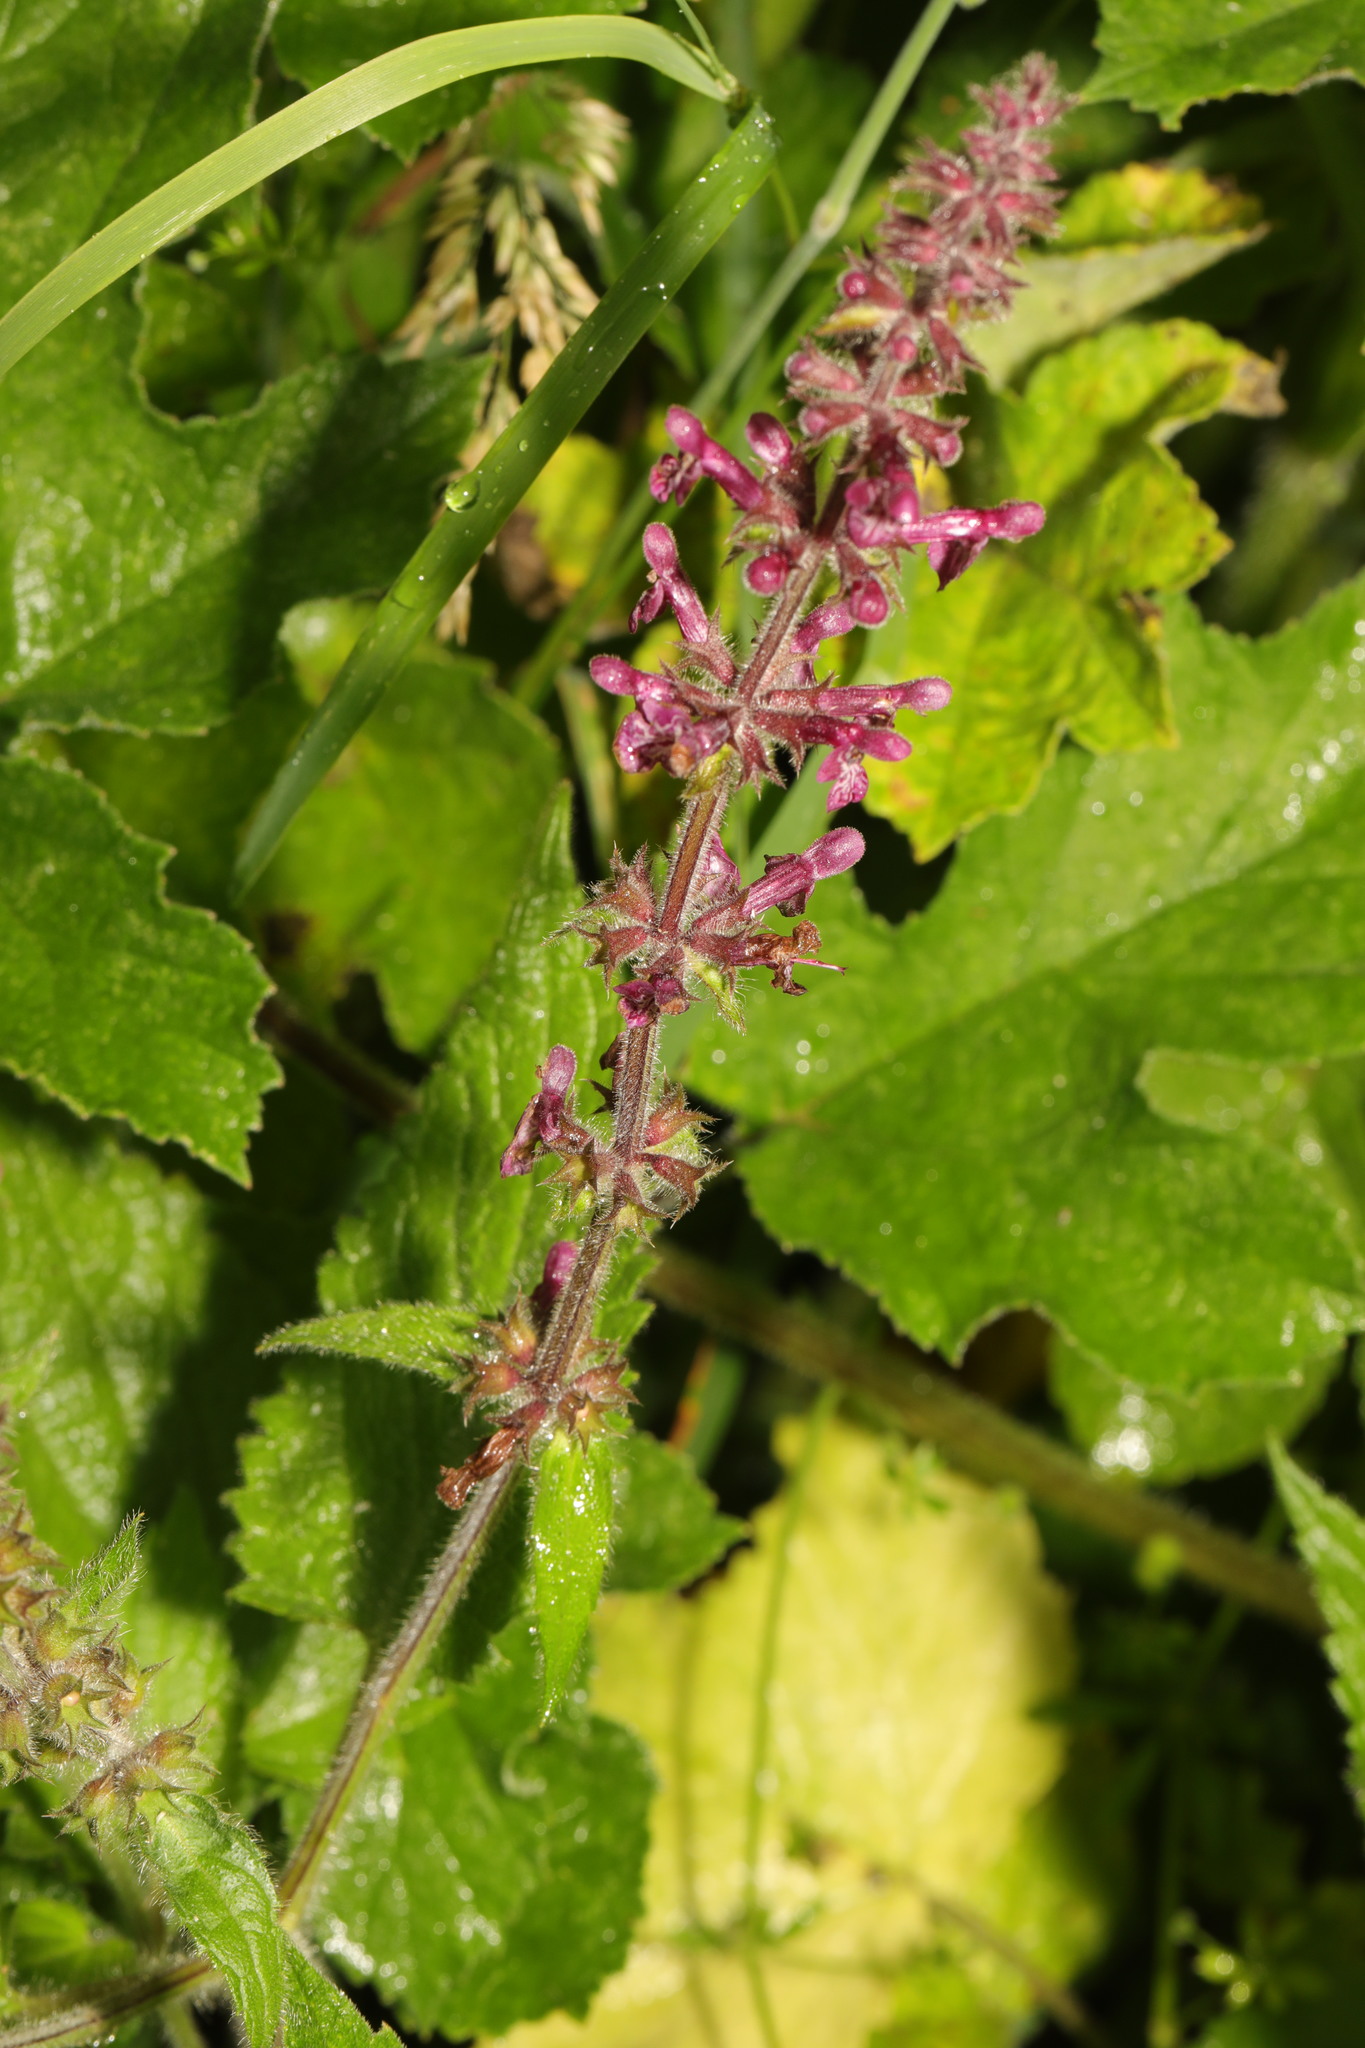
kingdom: Plantae
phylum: Tracheophyta
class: Magnoliopsida
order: Lamiales
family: Lamiaceae
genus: Stachys
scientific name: Stachys sylvatica
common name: Hedge woundwort
